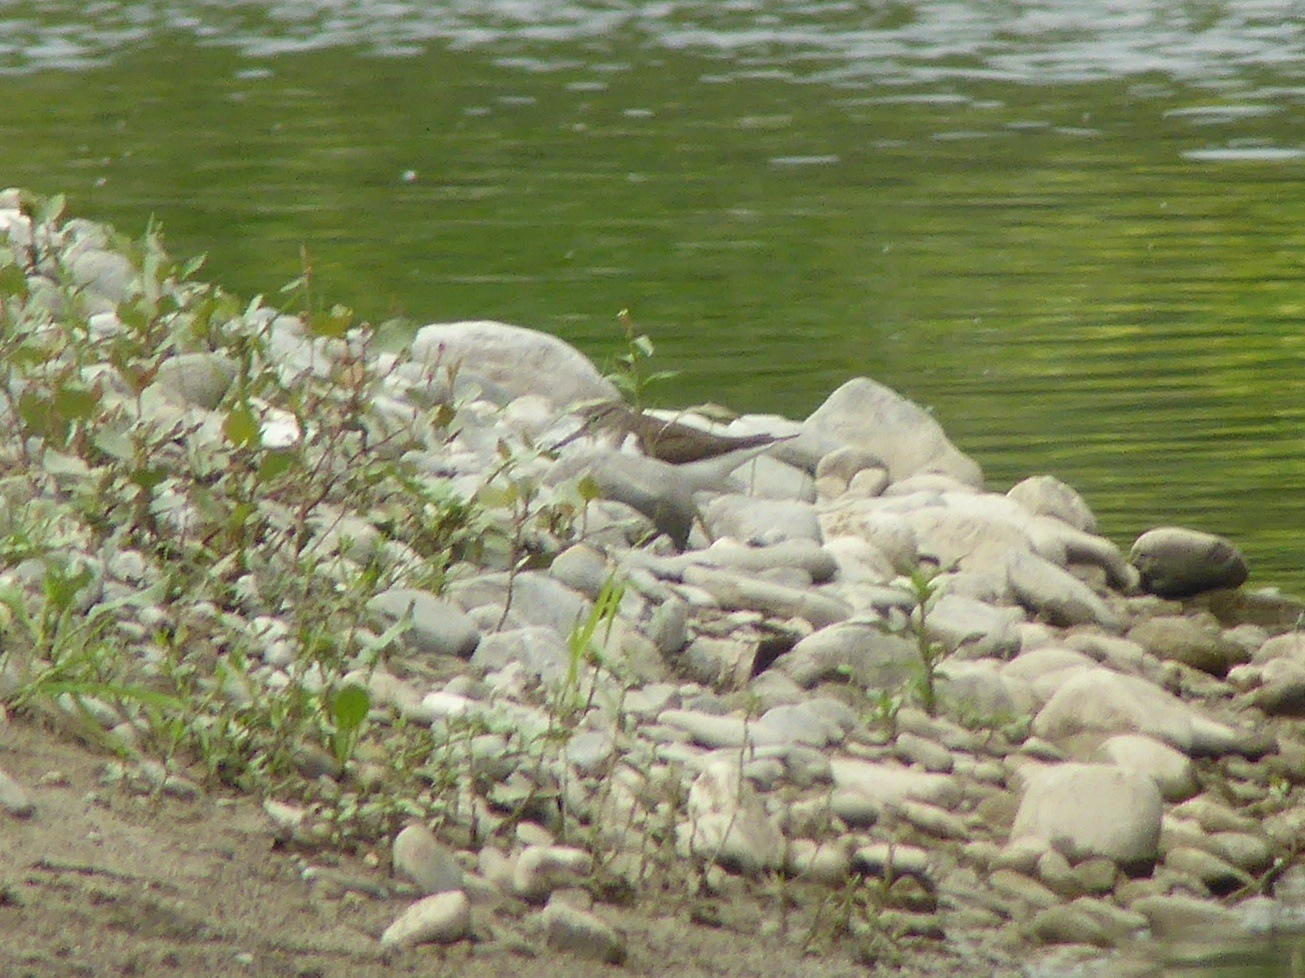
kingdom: Animalia
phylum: Chordata
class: Aves
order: Charadriiformes
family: Scolopacidae
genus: Actitis
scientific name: Actitis hypoleucos
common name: Common sandpiper
